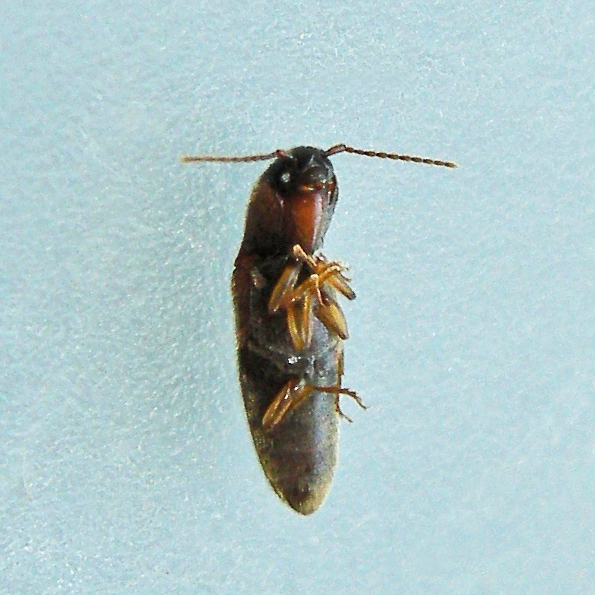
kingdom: Animalia
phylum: Arthropoda
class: Insecta
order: Coleoptera
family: Elateridae
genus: Glyphonyx
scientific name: Glyphonyx inquinatus
